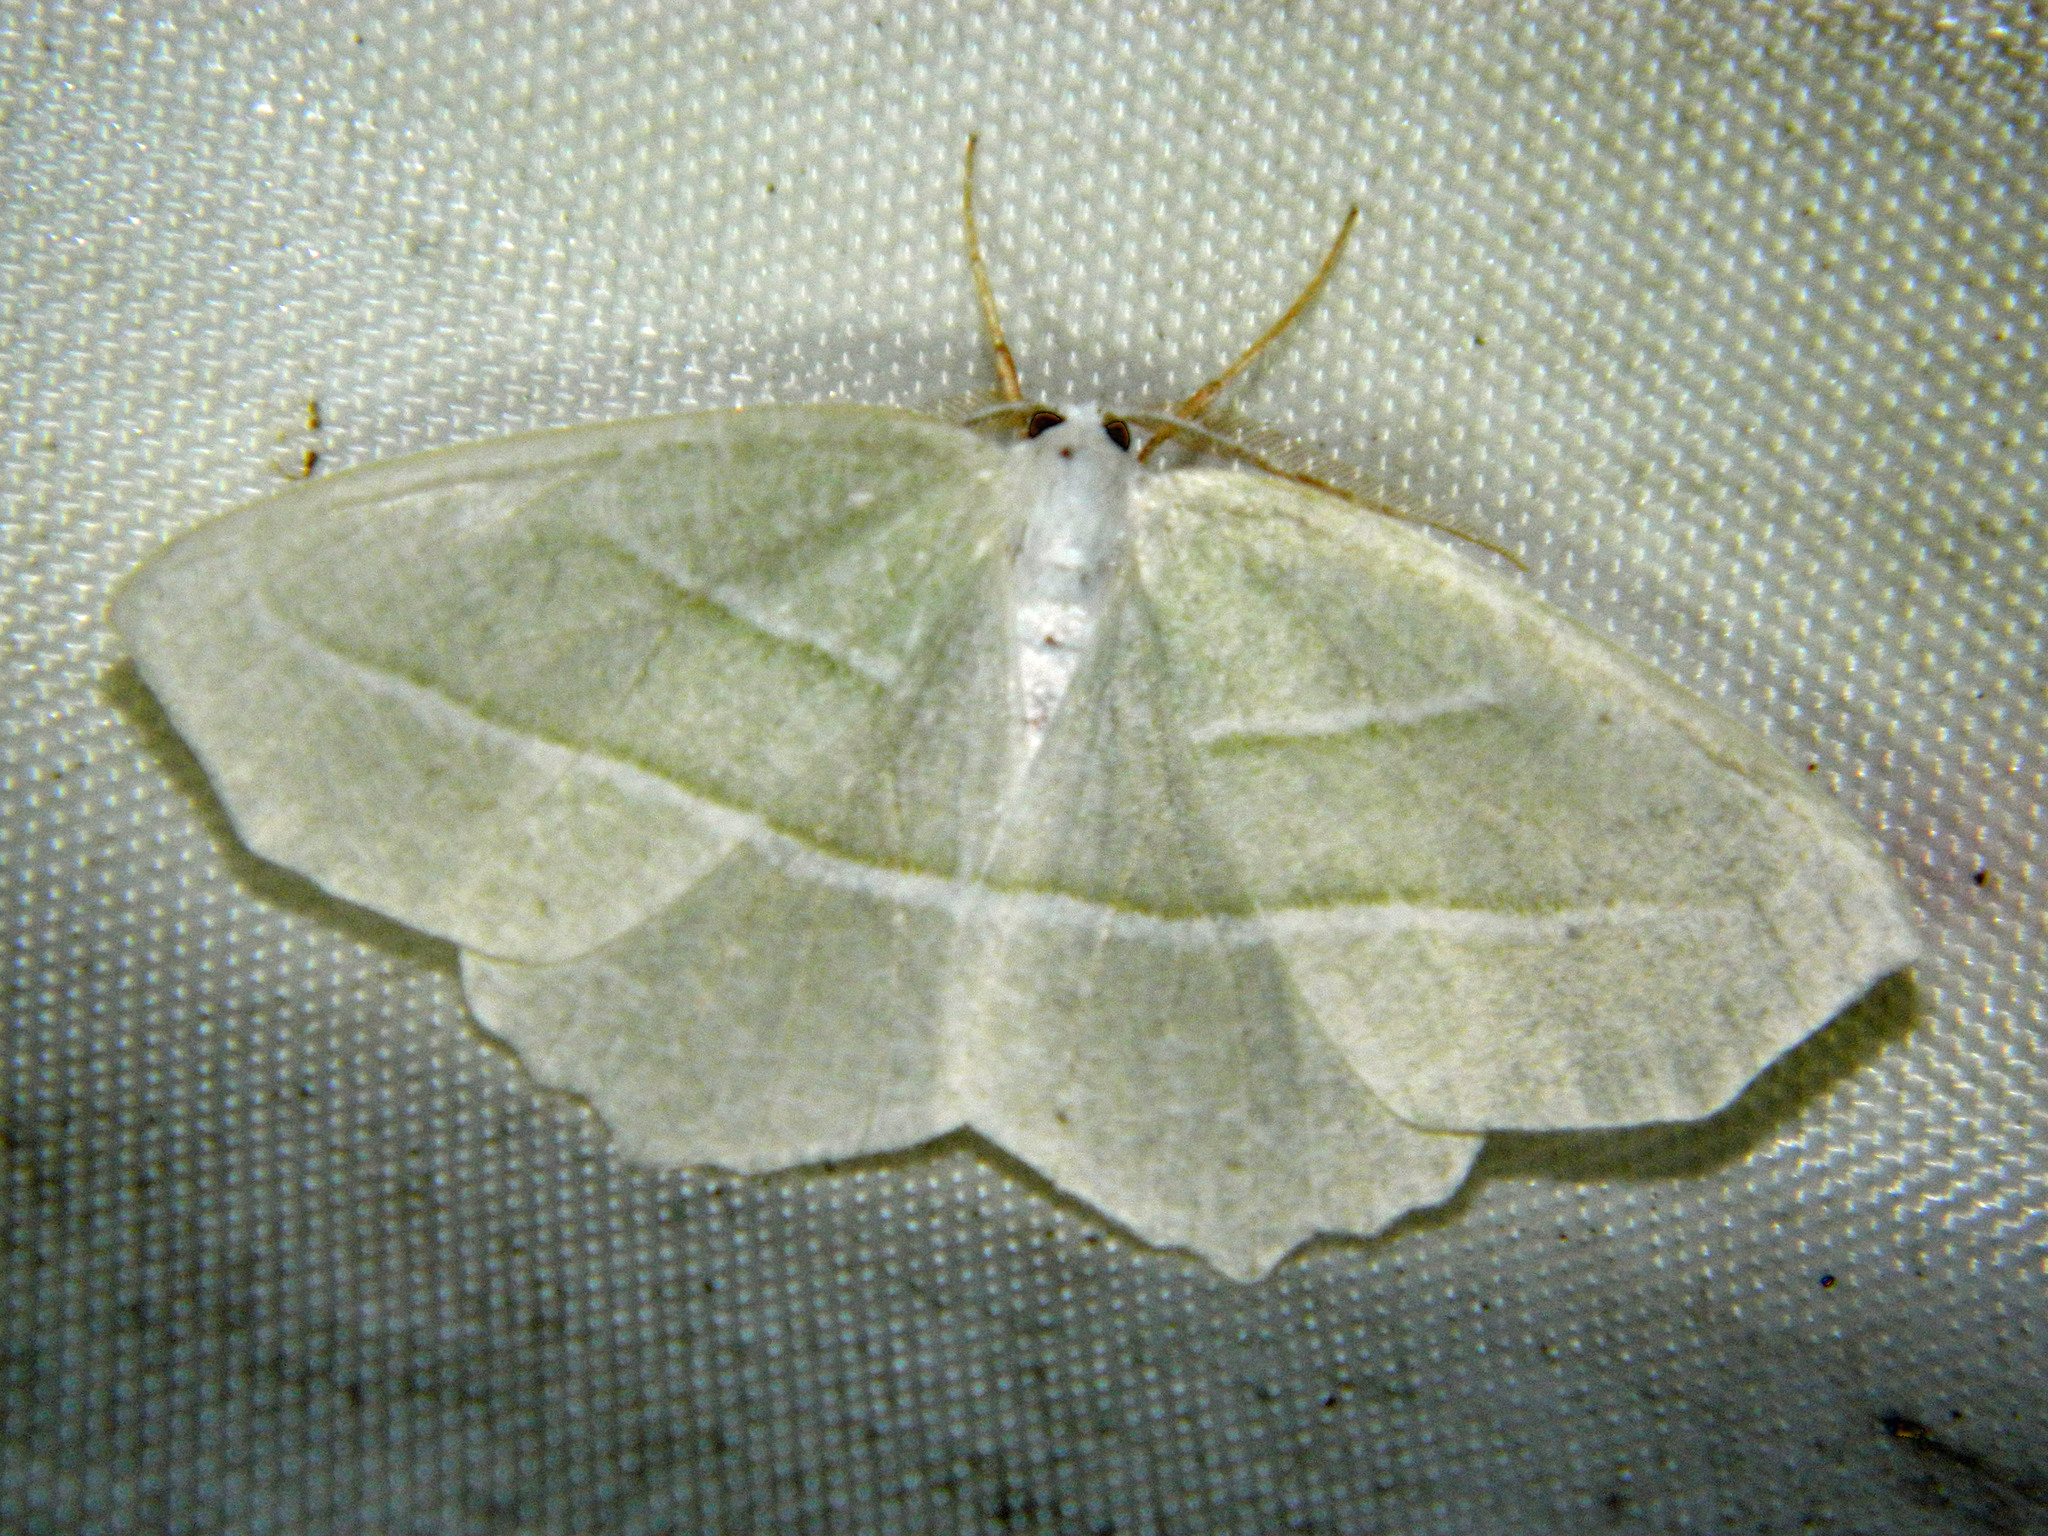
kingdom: Animalia
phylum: Arthropoda
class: Insecta
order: Lepidoptera
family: Geometridae
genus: Campaea
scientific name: Campaea perlata
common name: Fringed looper
